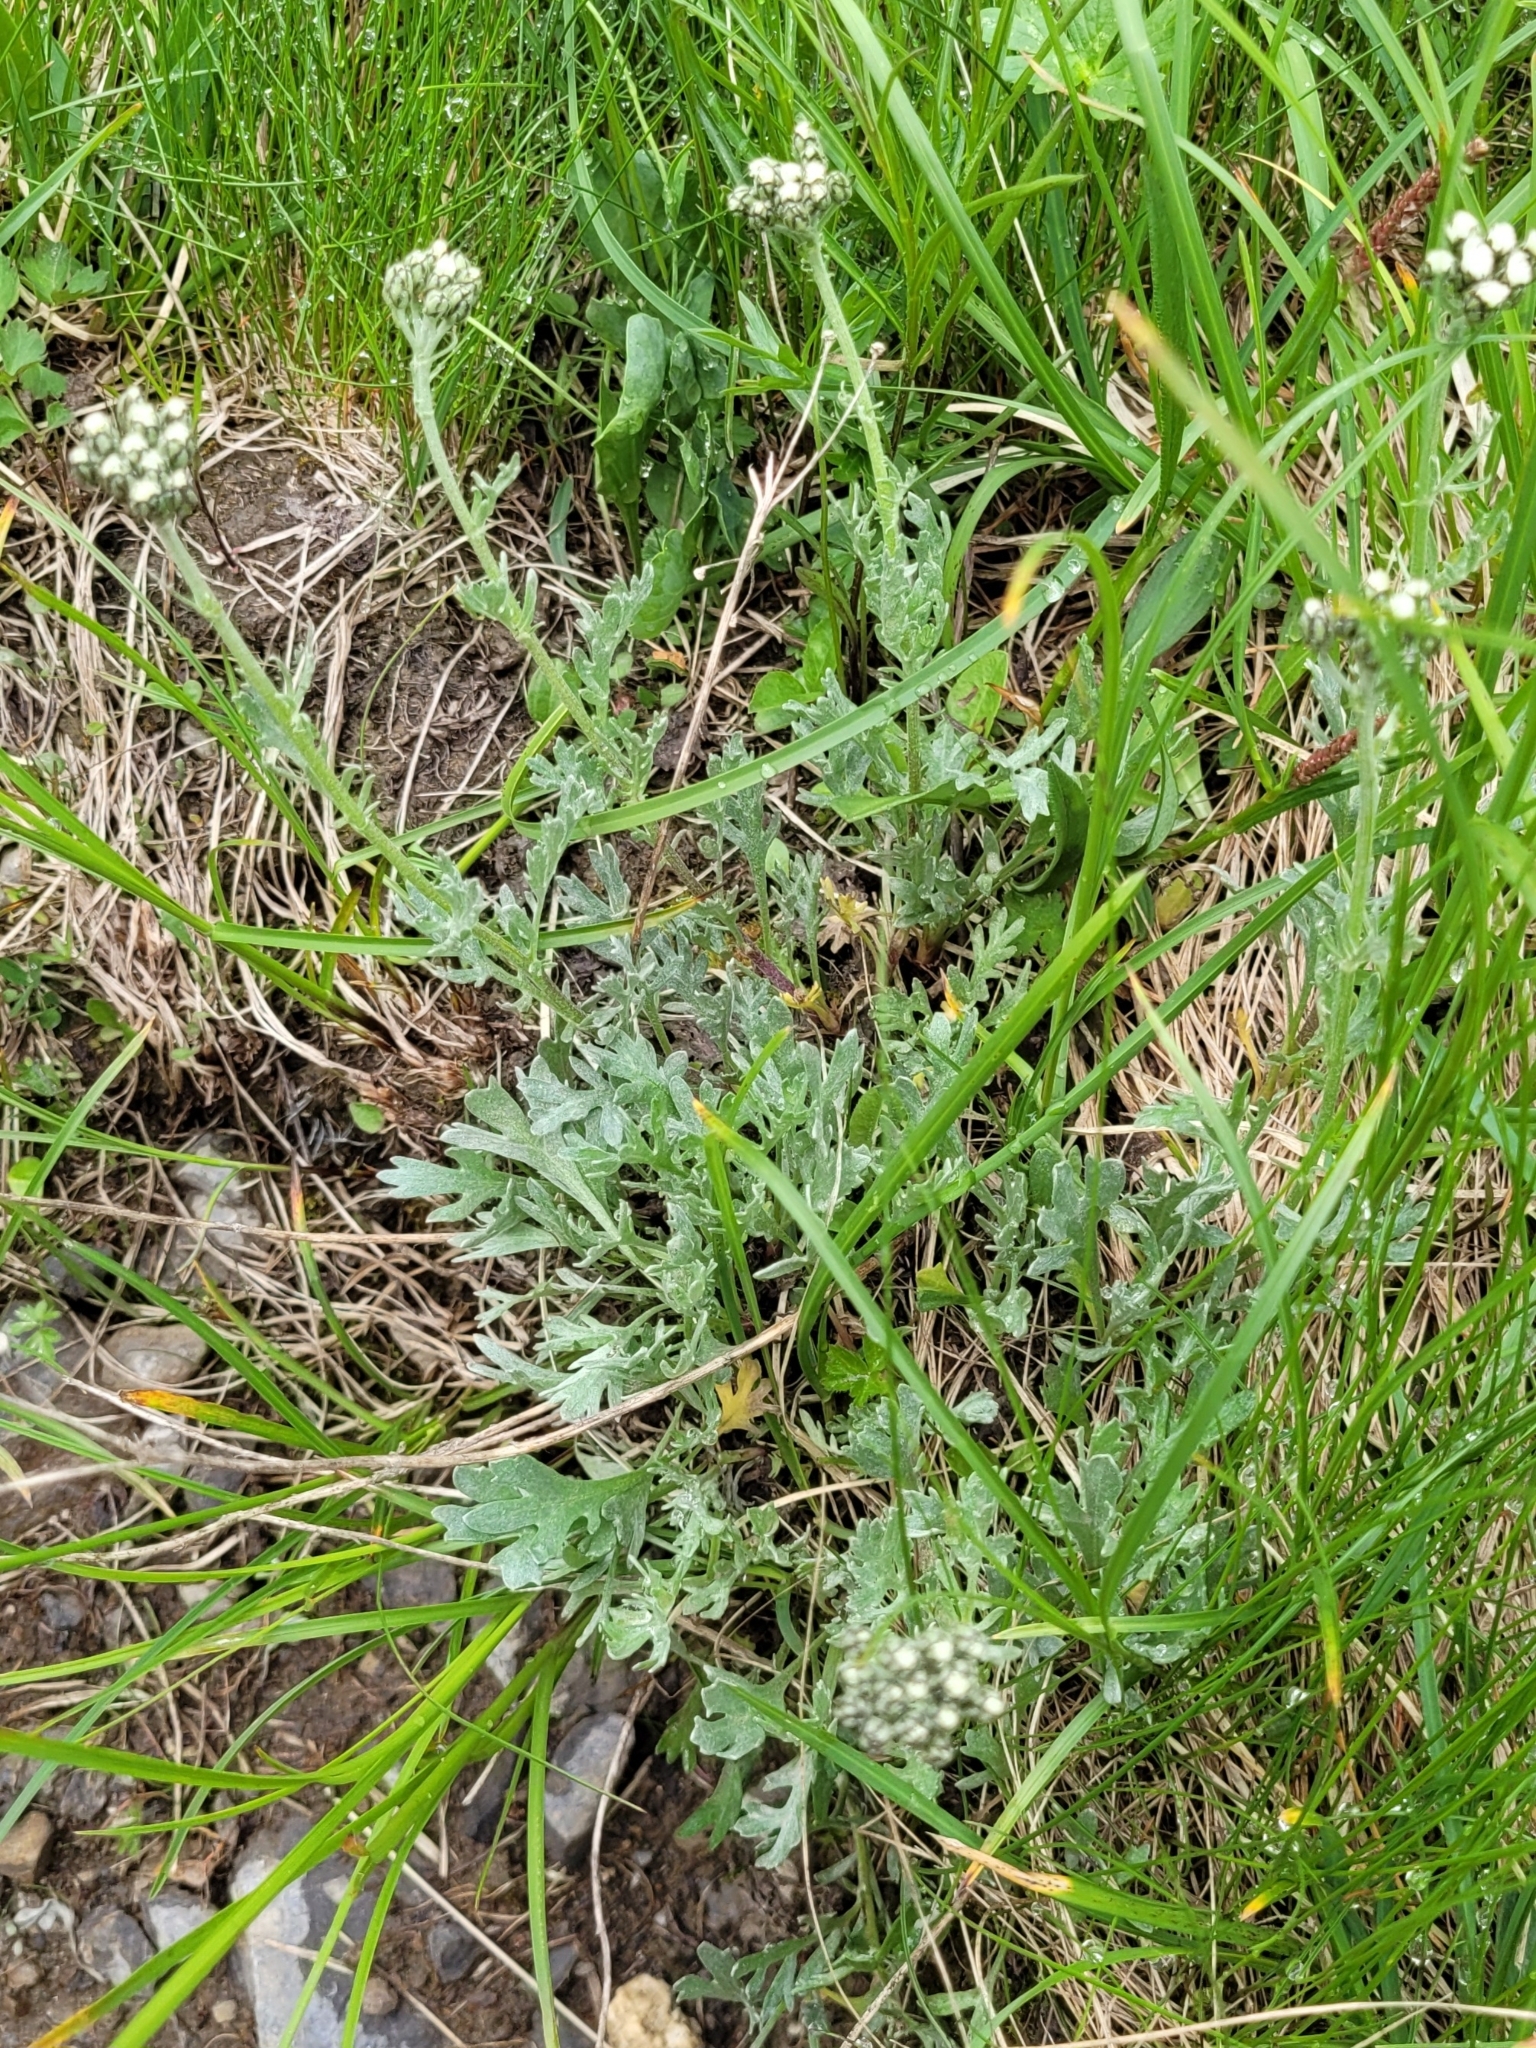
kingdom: Plantae
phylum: Tracheophyta
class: Magnoliopsida
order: Asterales
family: Asteraceae
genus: Achillea
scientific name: Achillea clavennae
